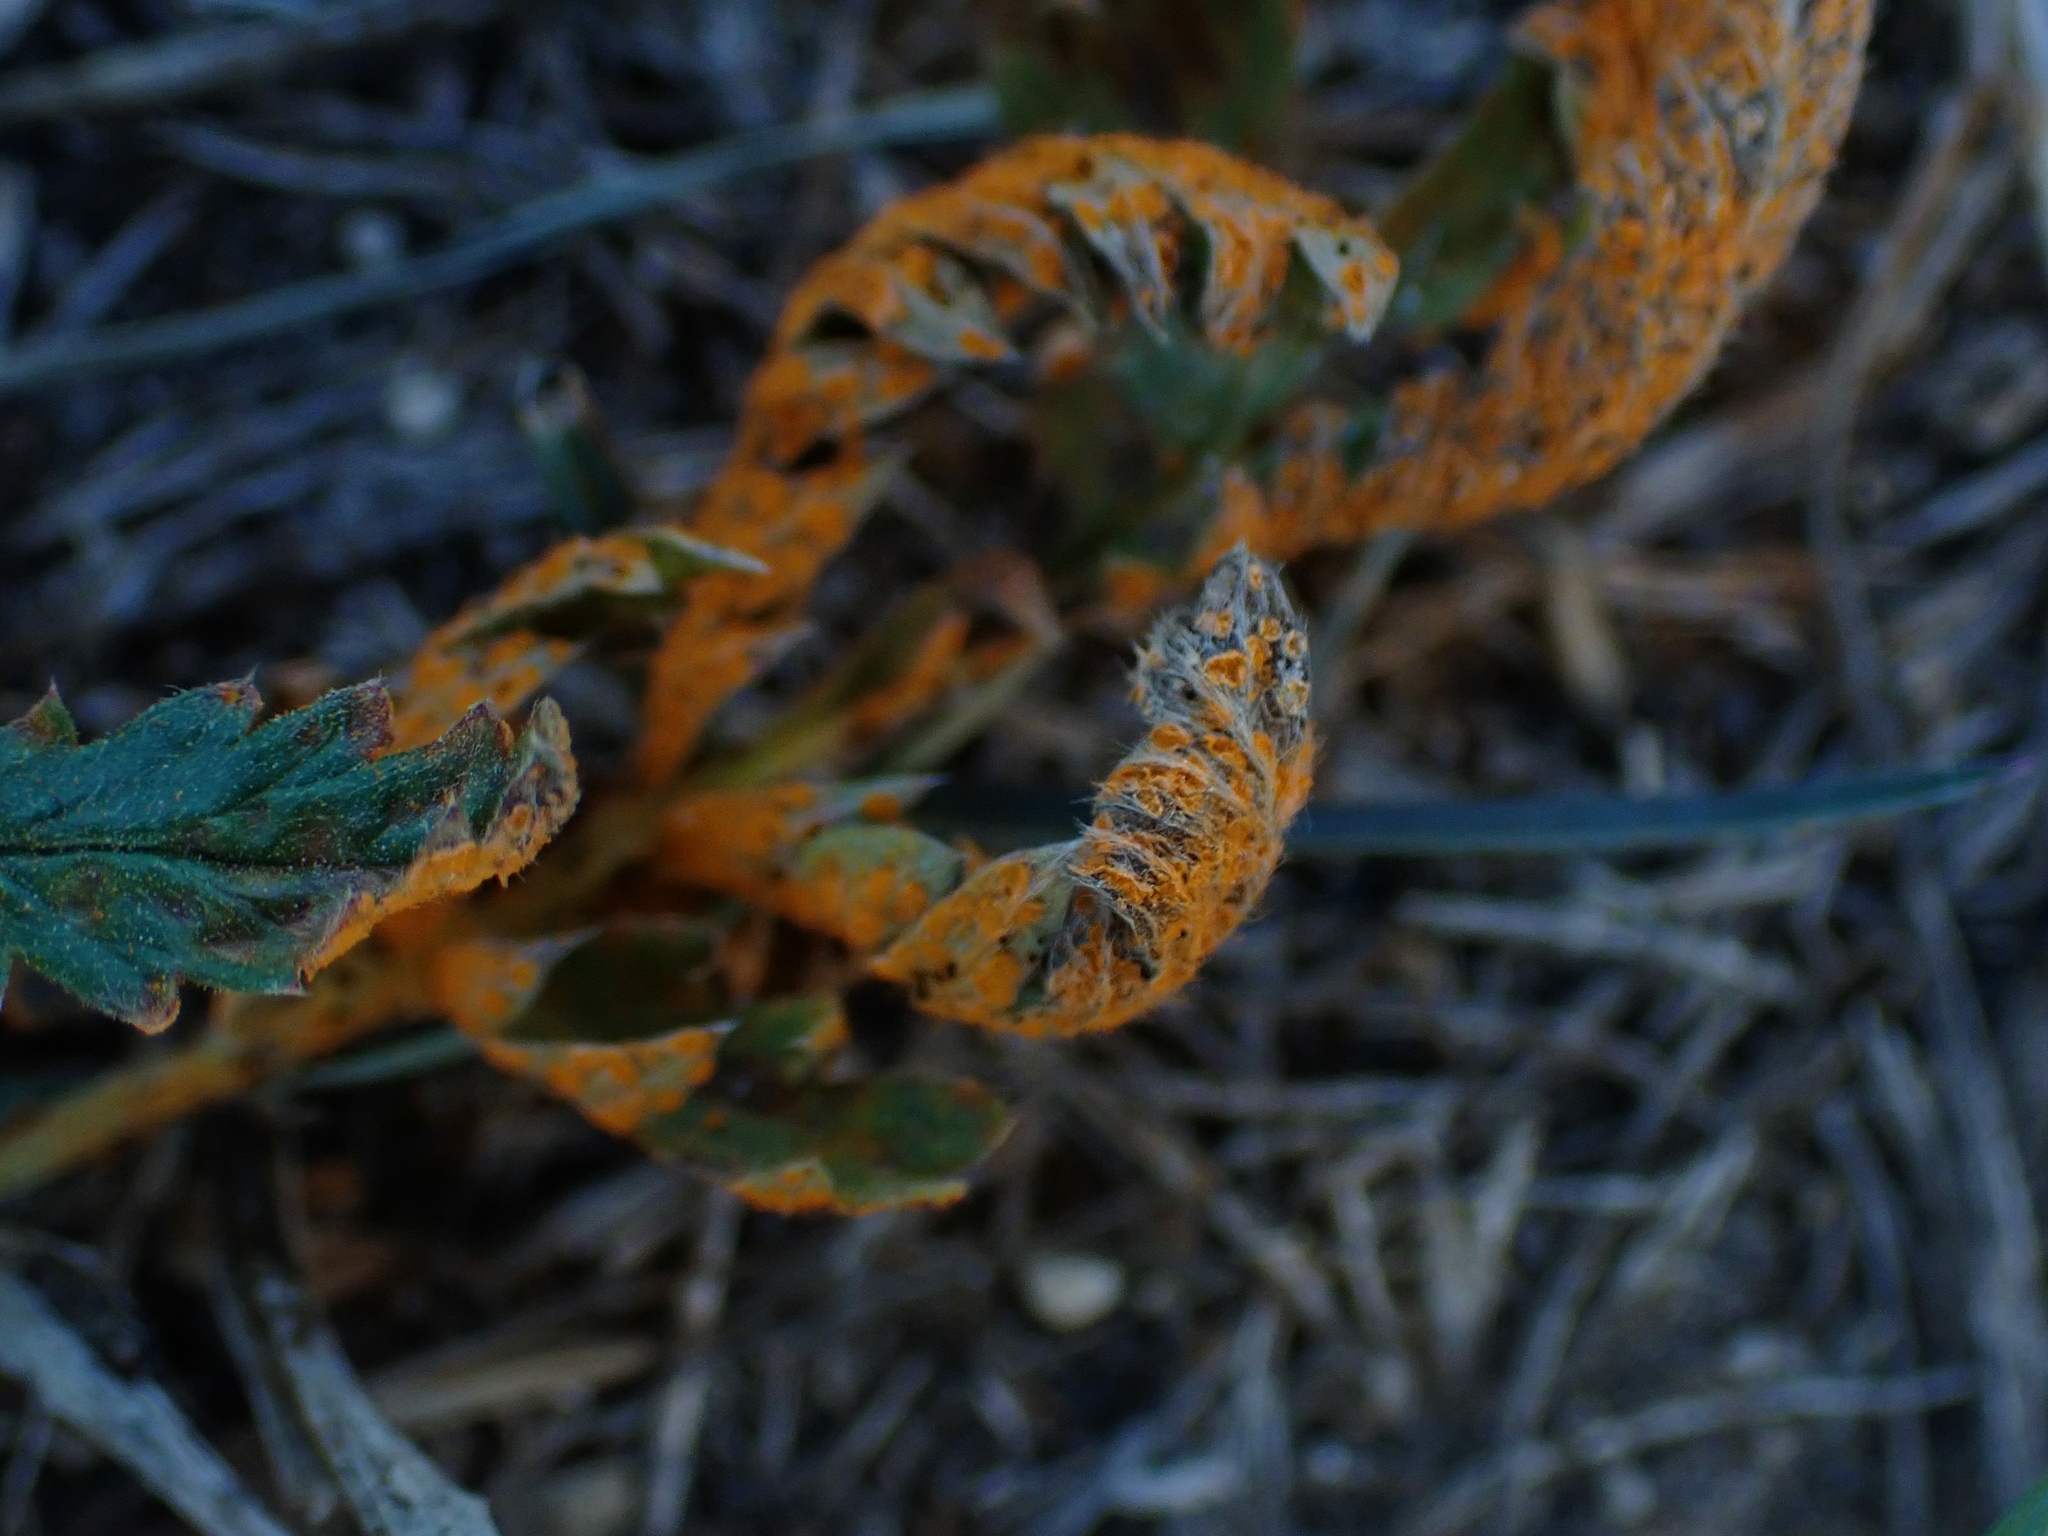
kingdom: Fungi
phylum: Basidiomycota
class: Pucciniomycetes
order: Pucciniales
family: Phragmidiaceae
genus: Phragmidium
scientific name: Phragmidium potentillae
